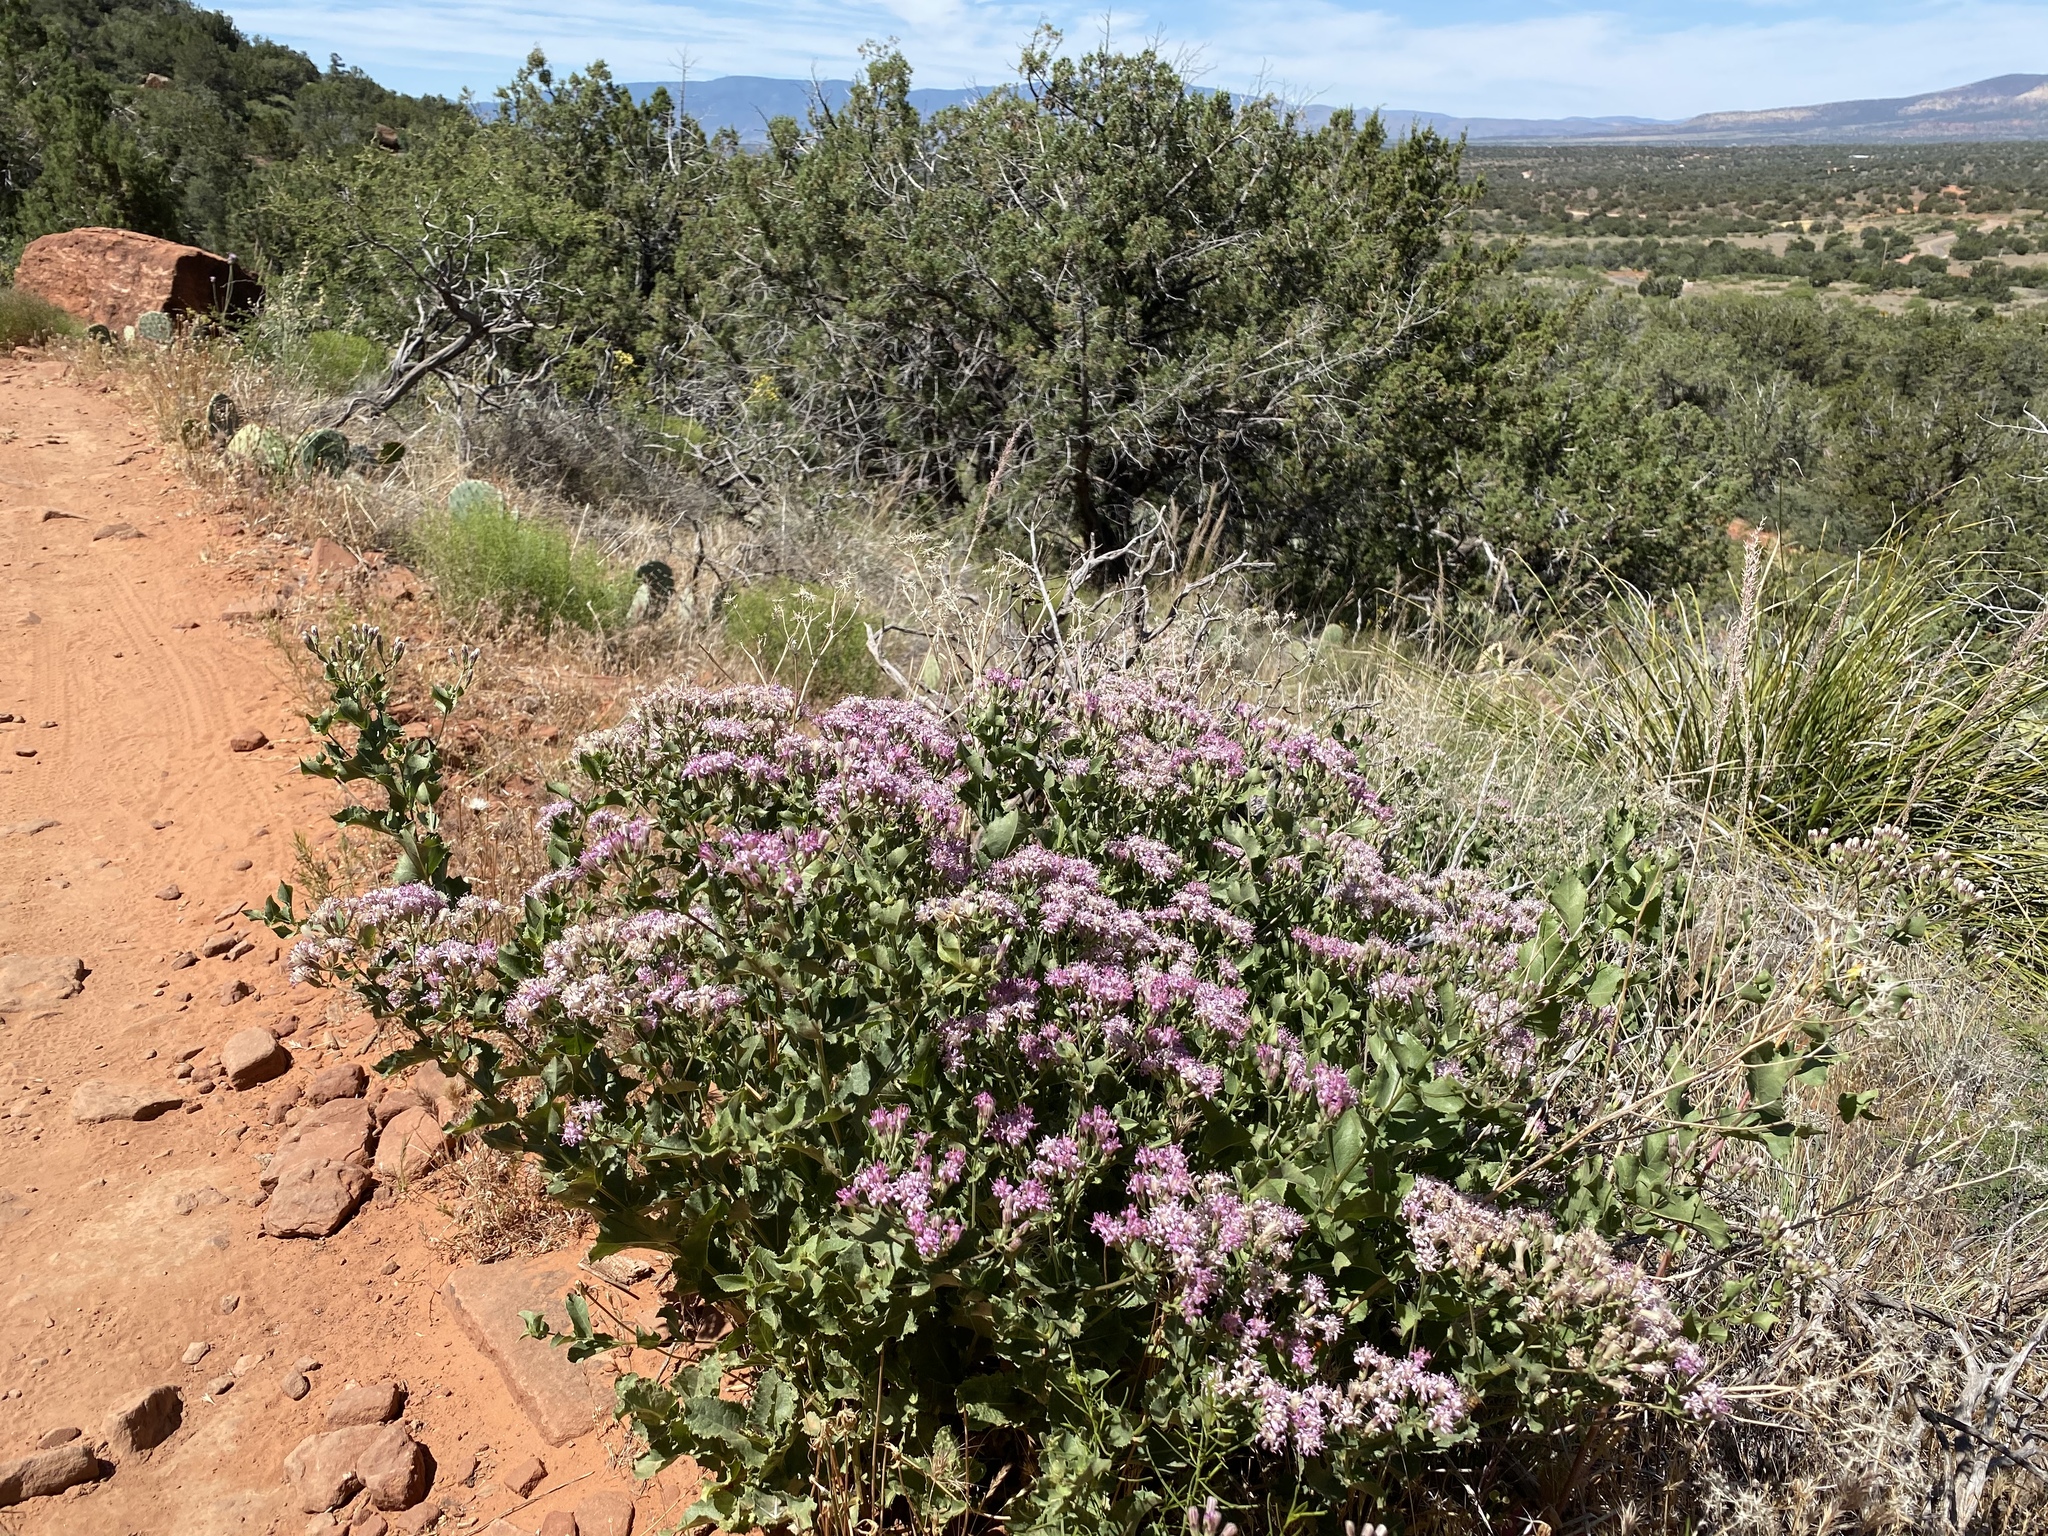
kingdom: Plantae
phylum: Tracheophyta
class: Magnoliopsida
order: Asterales
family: Asteraceae
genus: Acourtia
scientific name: Acourtia wrightii
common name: Brownfoot
